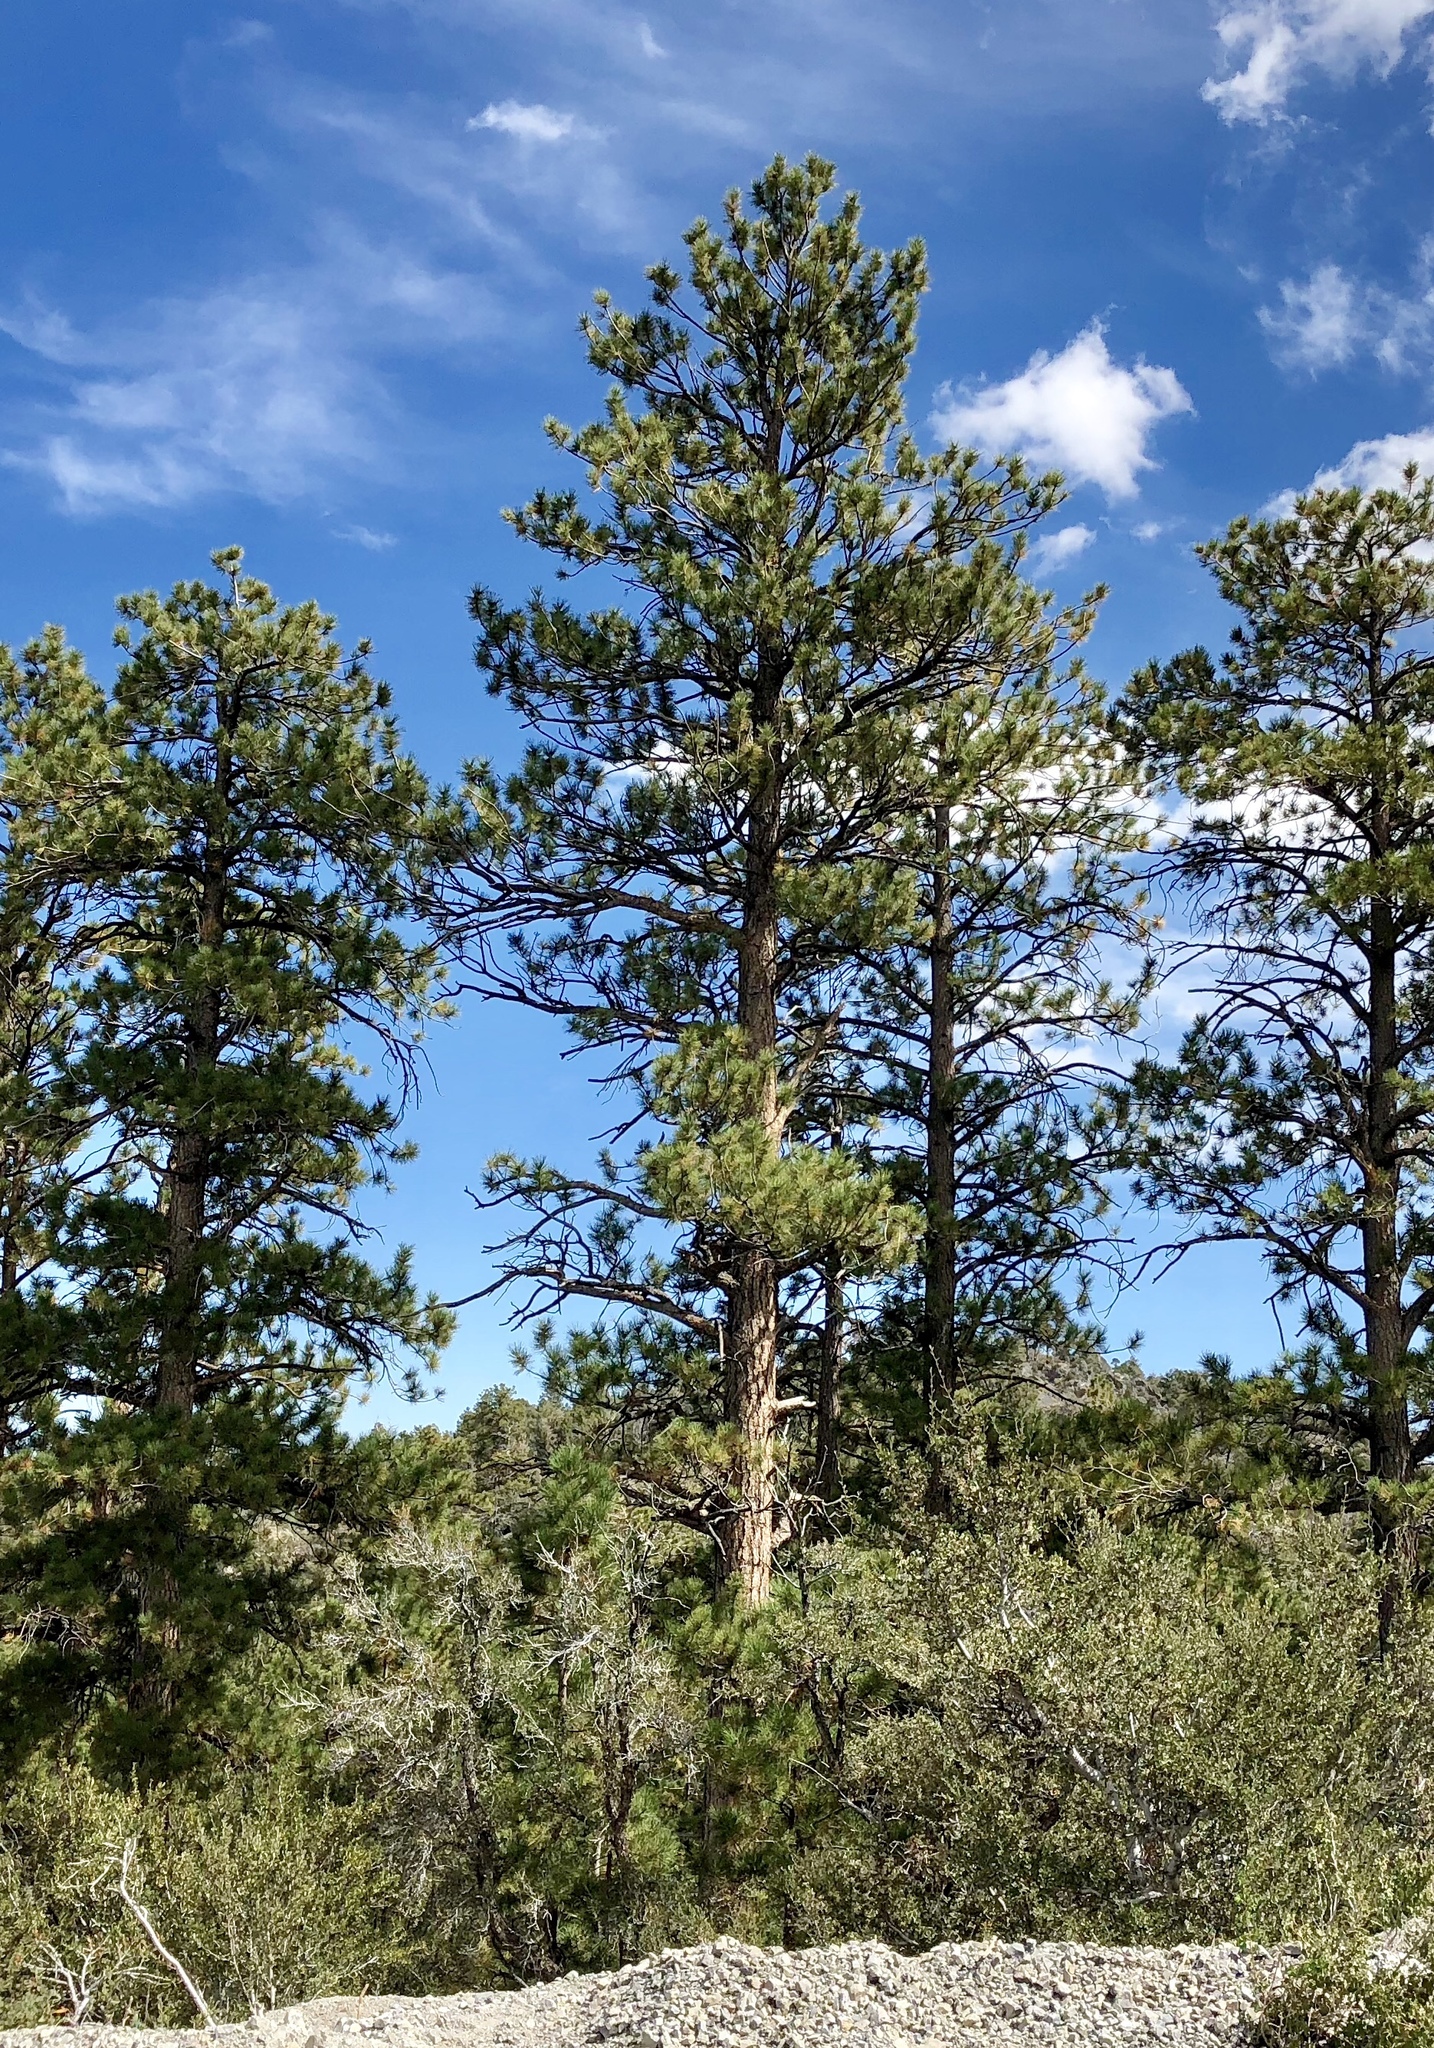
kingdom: Plantae
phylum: Tracheophyta
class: Pinopsida
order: Pinales
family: Pinaceae
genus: Pinus
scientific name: Pinus ponderosa
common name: Western yellow-pine
